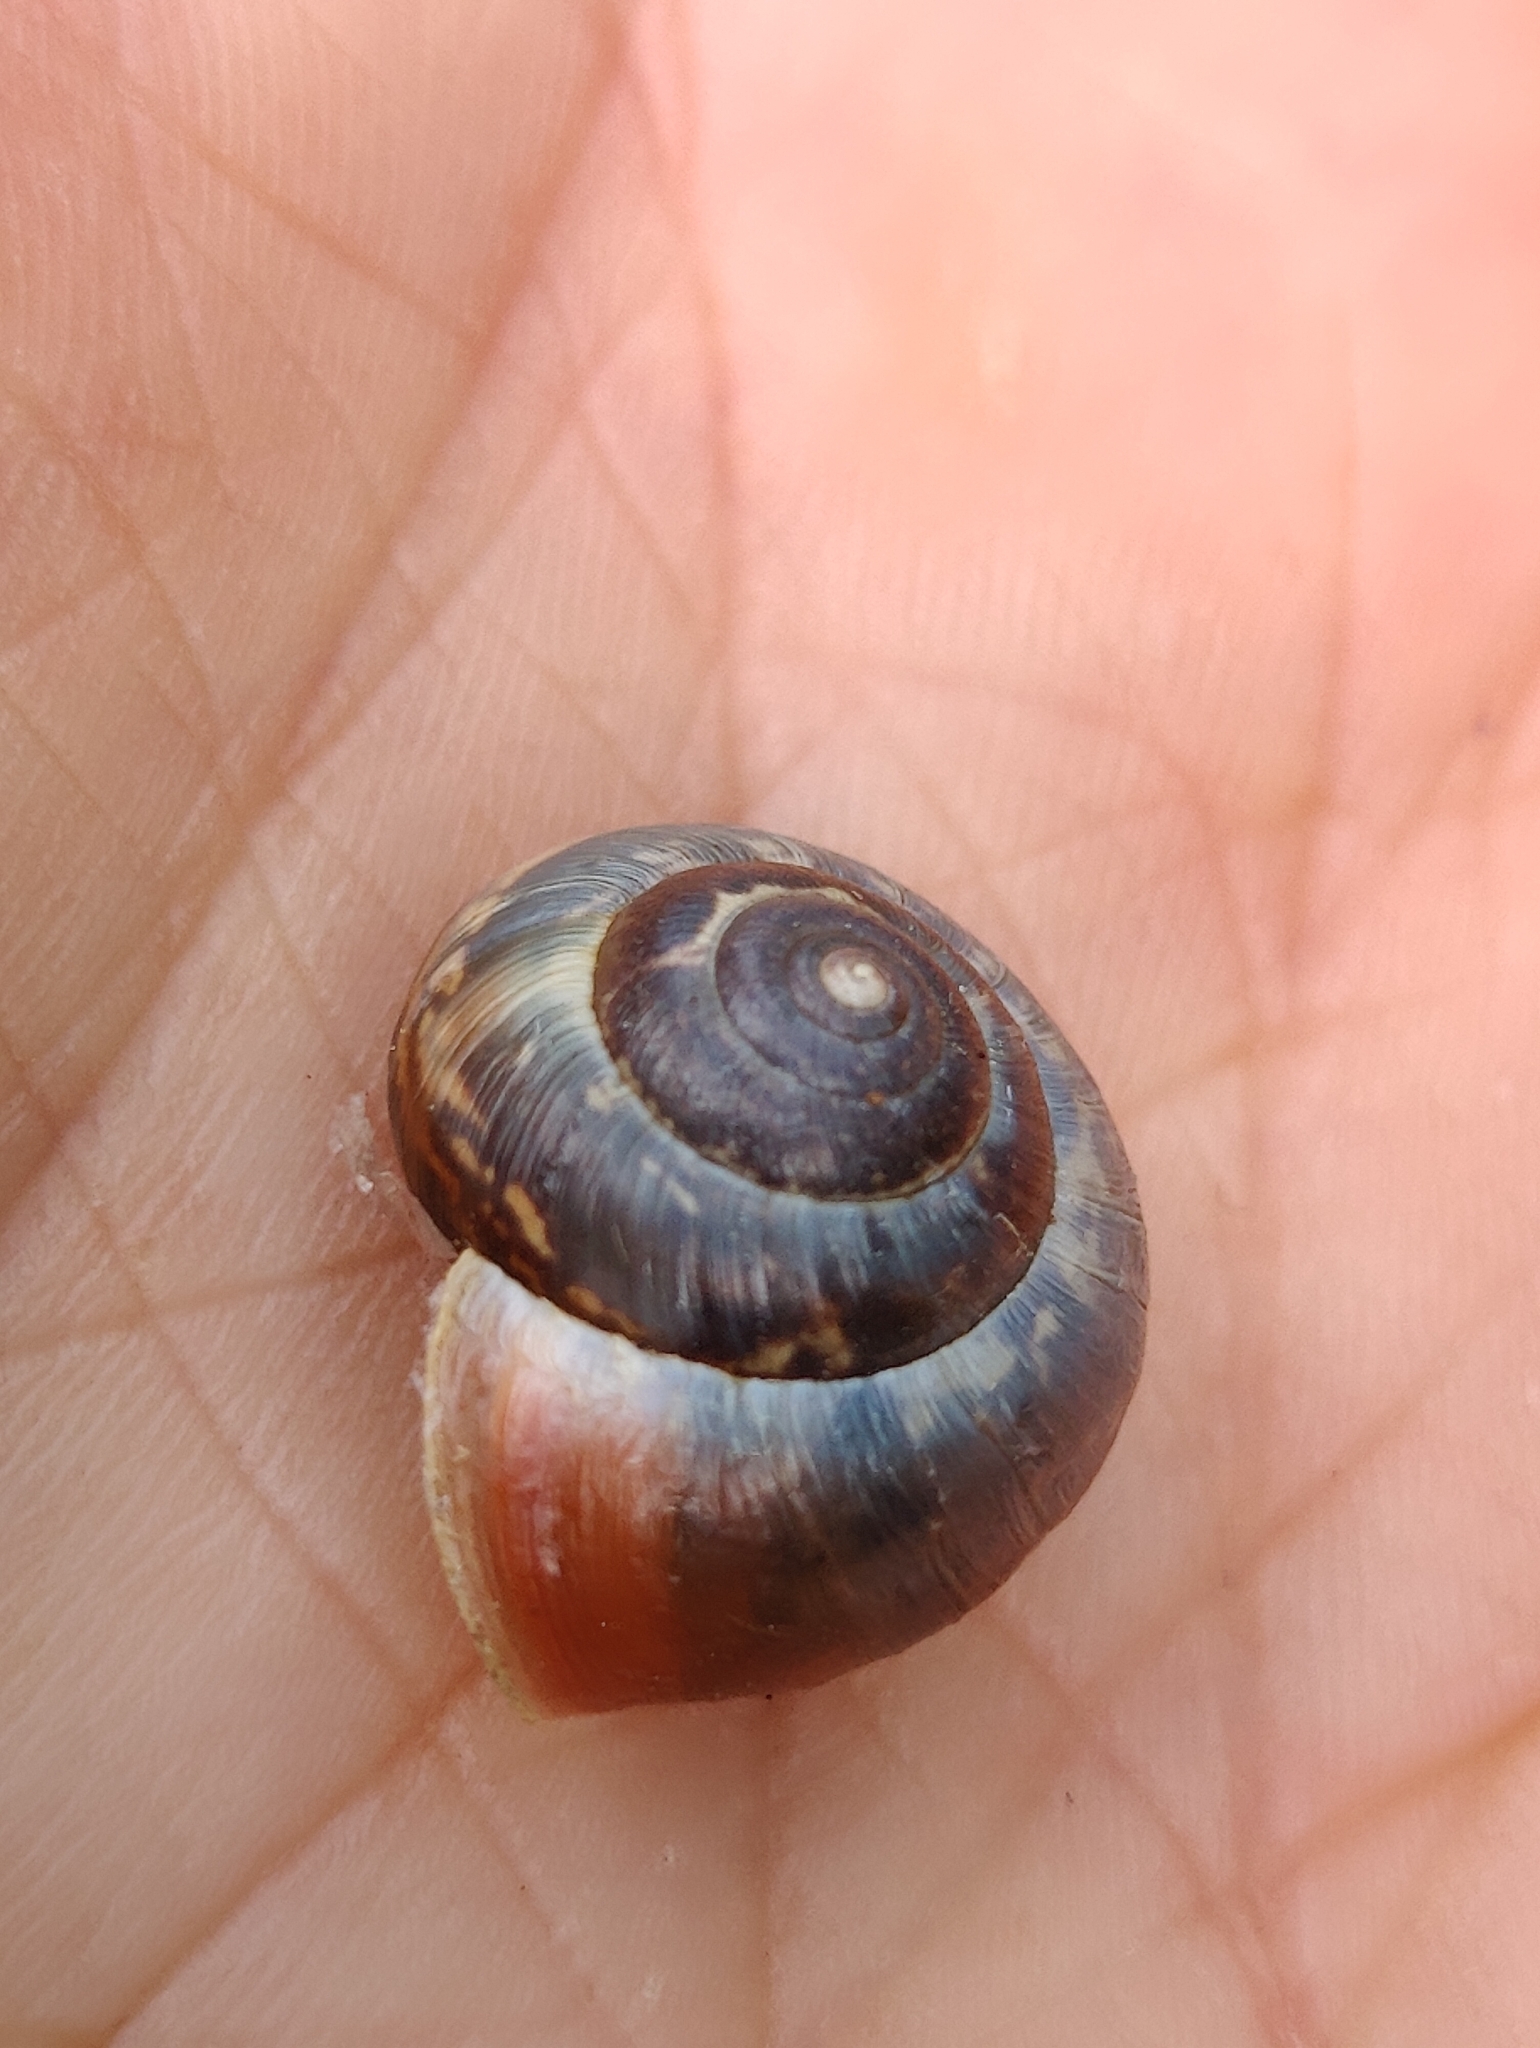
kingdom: Animalia
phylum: Mollusca
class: Gastropoda
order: Stylommatophora
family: Hygromiidae
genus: Monacha
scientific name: Monacha cantiana
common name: Kentish snail
